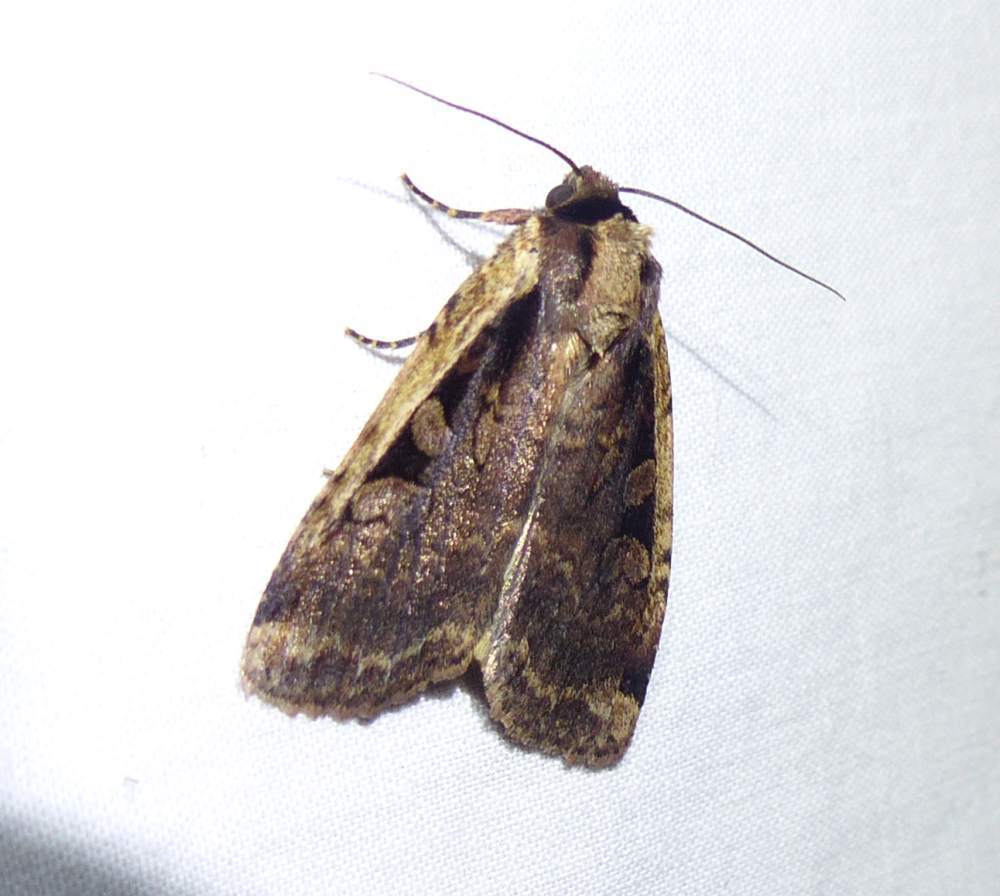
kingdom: Animalia
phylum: Arthropoda
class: Insecta
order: Lepidoptera
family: Noctuidae
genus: Eueretagrotis
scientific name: Eueretagrotis sigmoides
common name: Sigmoid dart
